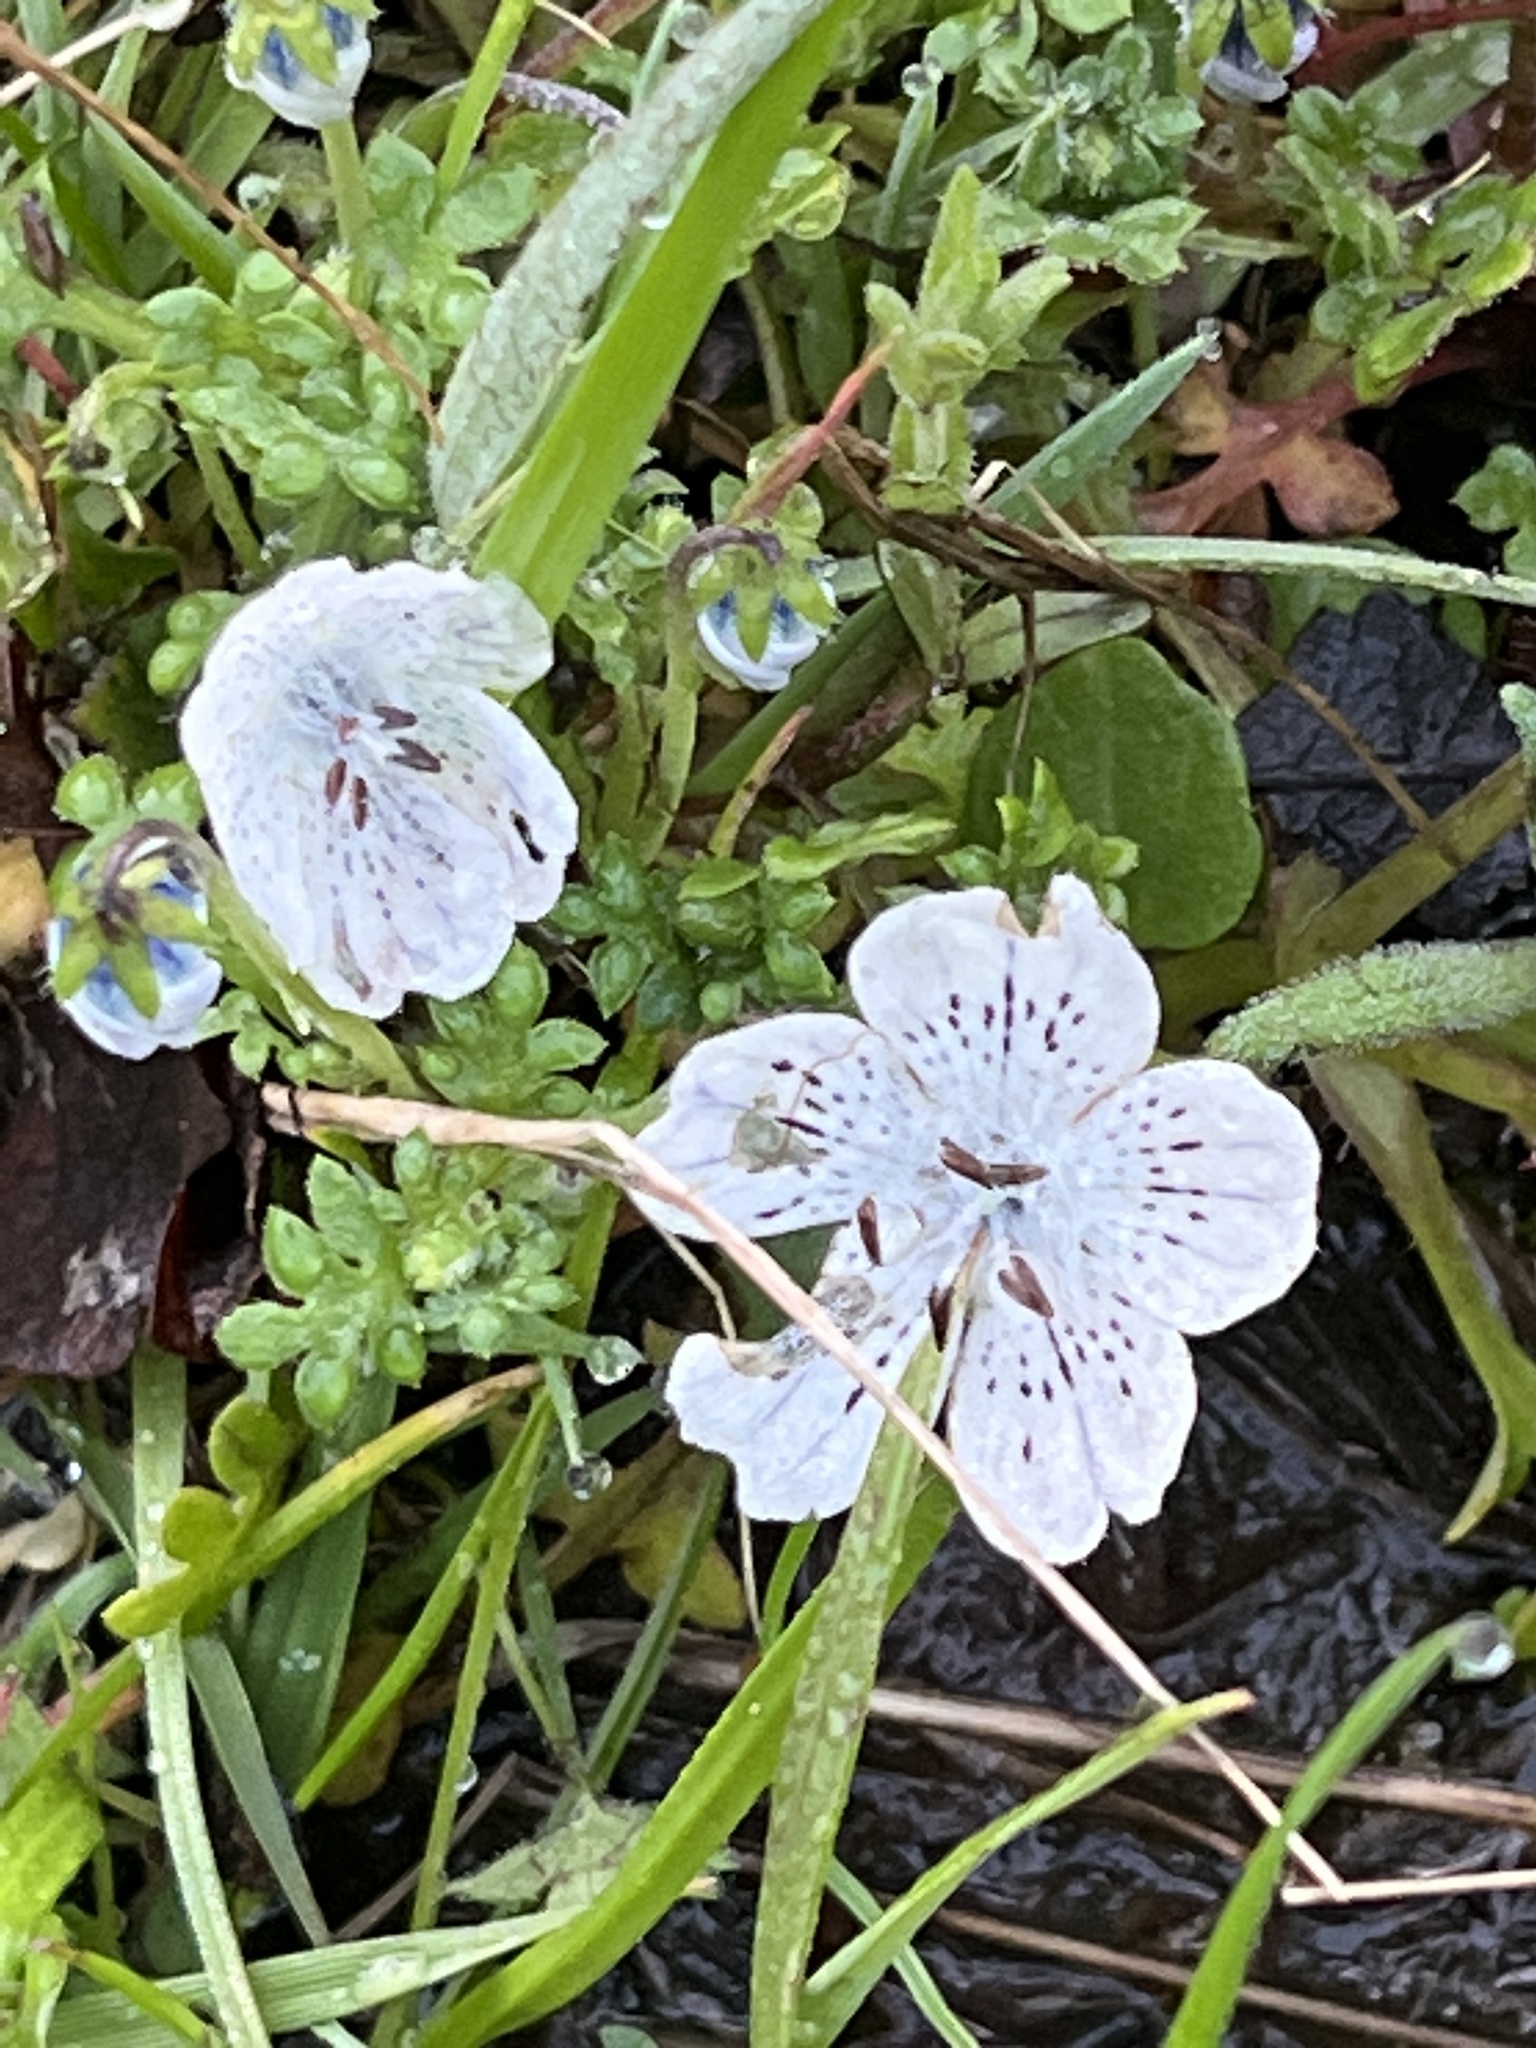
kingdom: Plantae
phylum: Tracheophyta
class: Magnoliopsida
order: Boraginales
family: Hydrophyllaceae
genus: Nemophila
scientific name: Nemophila menziesii
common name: Baby's-blue-eyes
